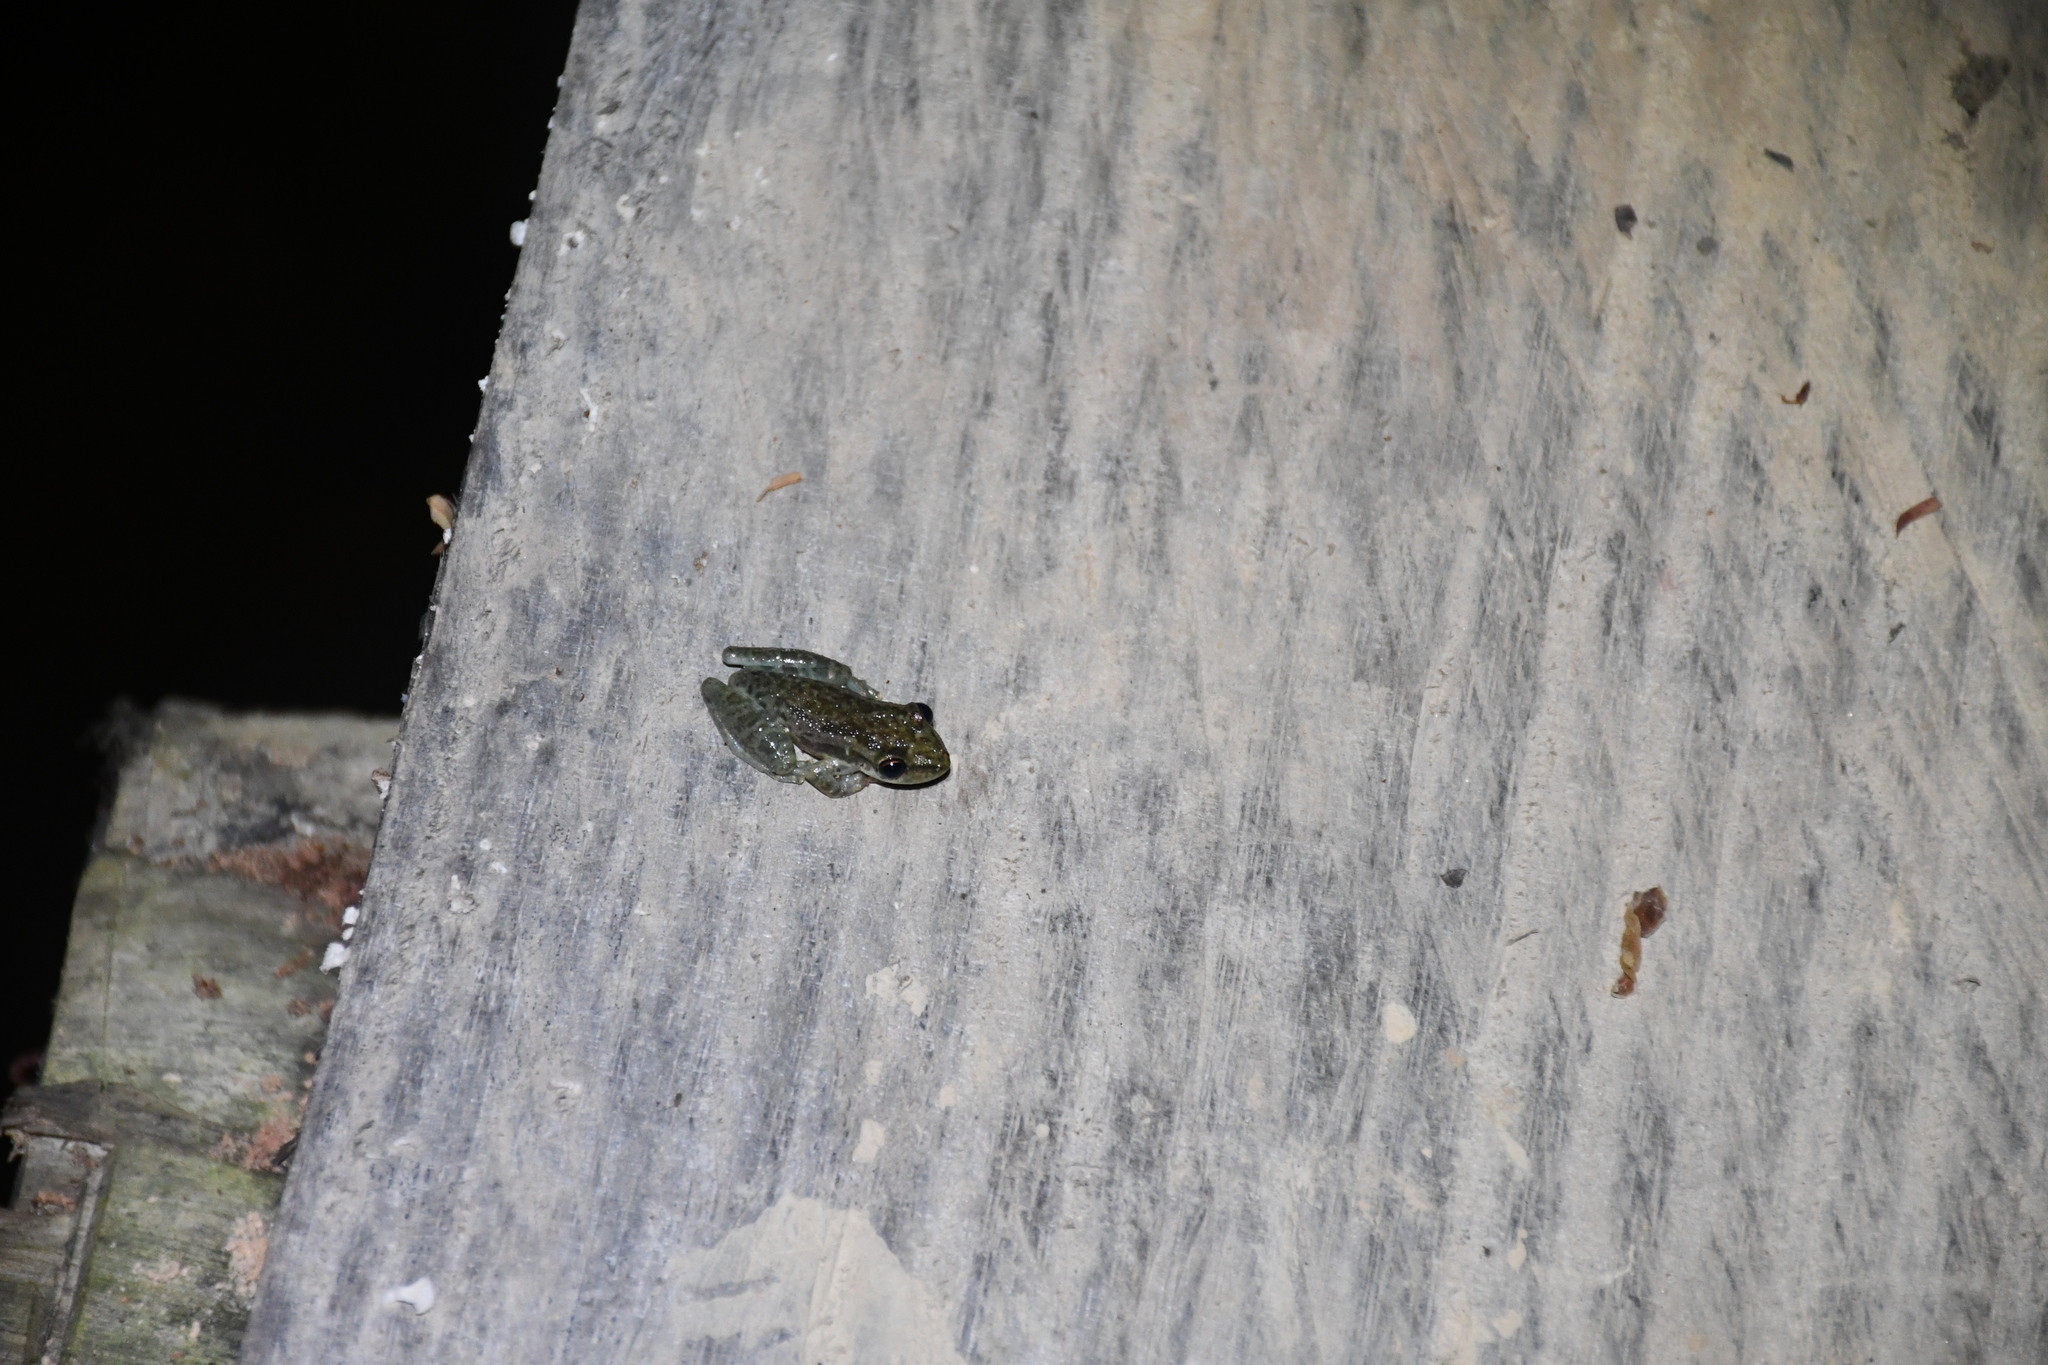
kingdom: Animalia
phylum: Chordata
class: Amphibia
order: Anura
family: Hylidae
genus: Scinax
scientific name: Scinax ruber
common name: Red snouted treefrog
